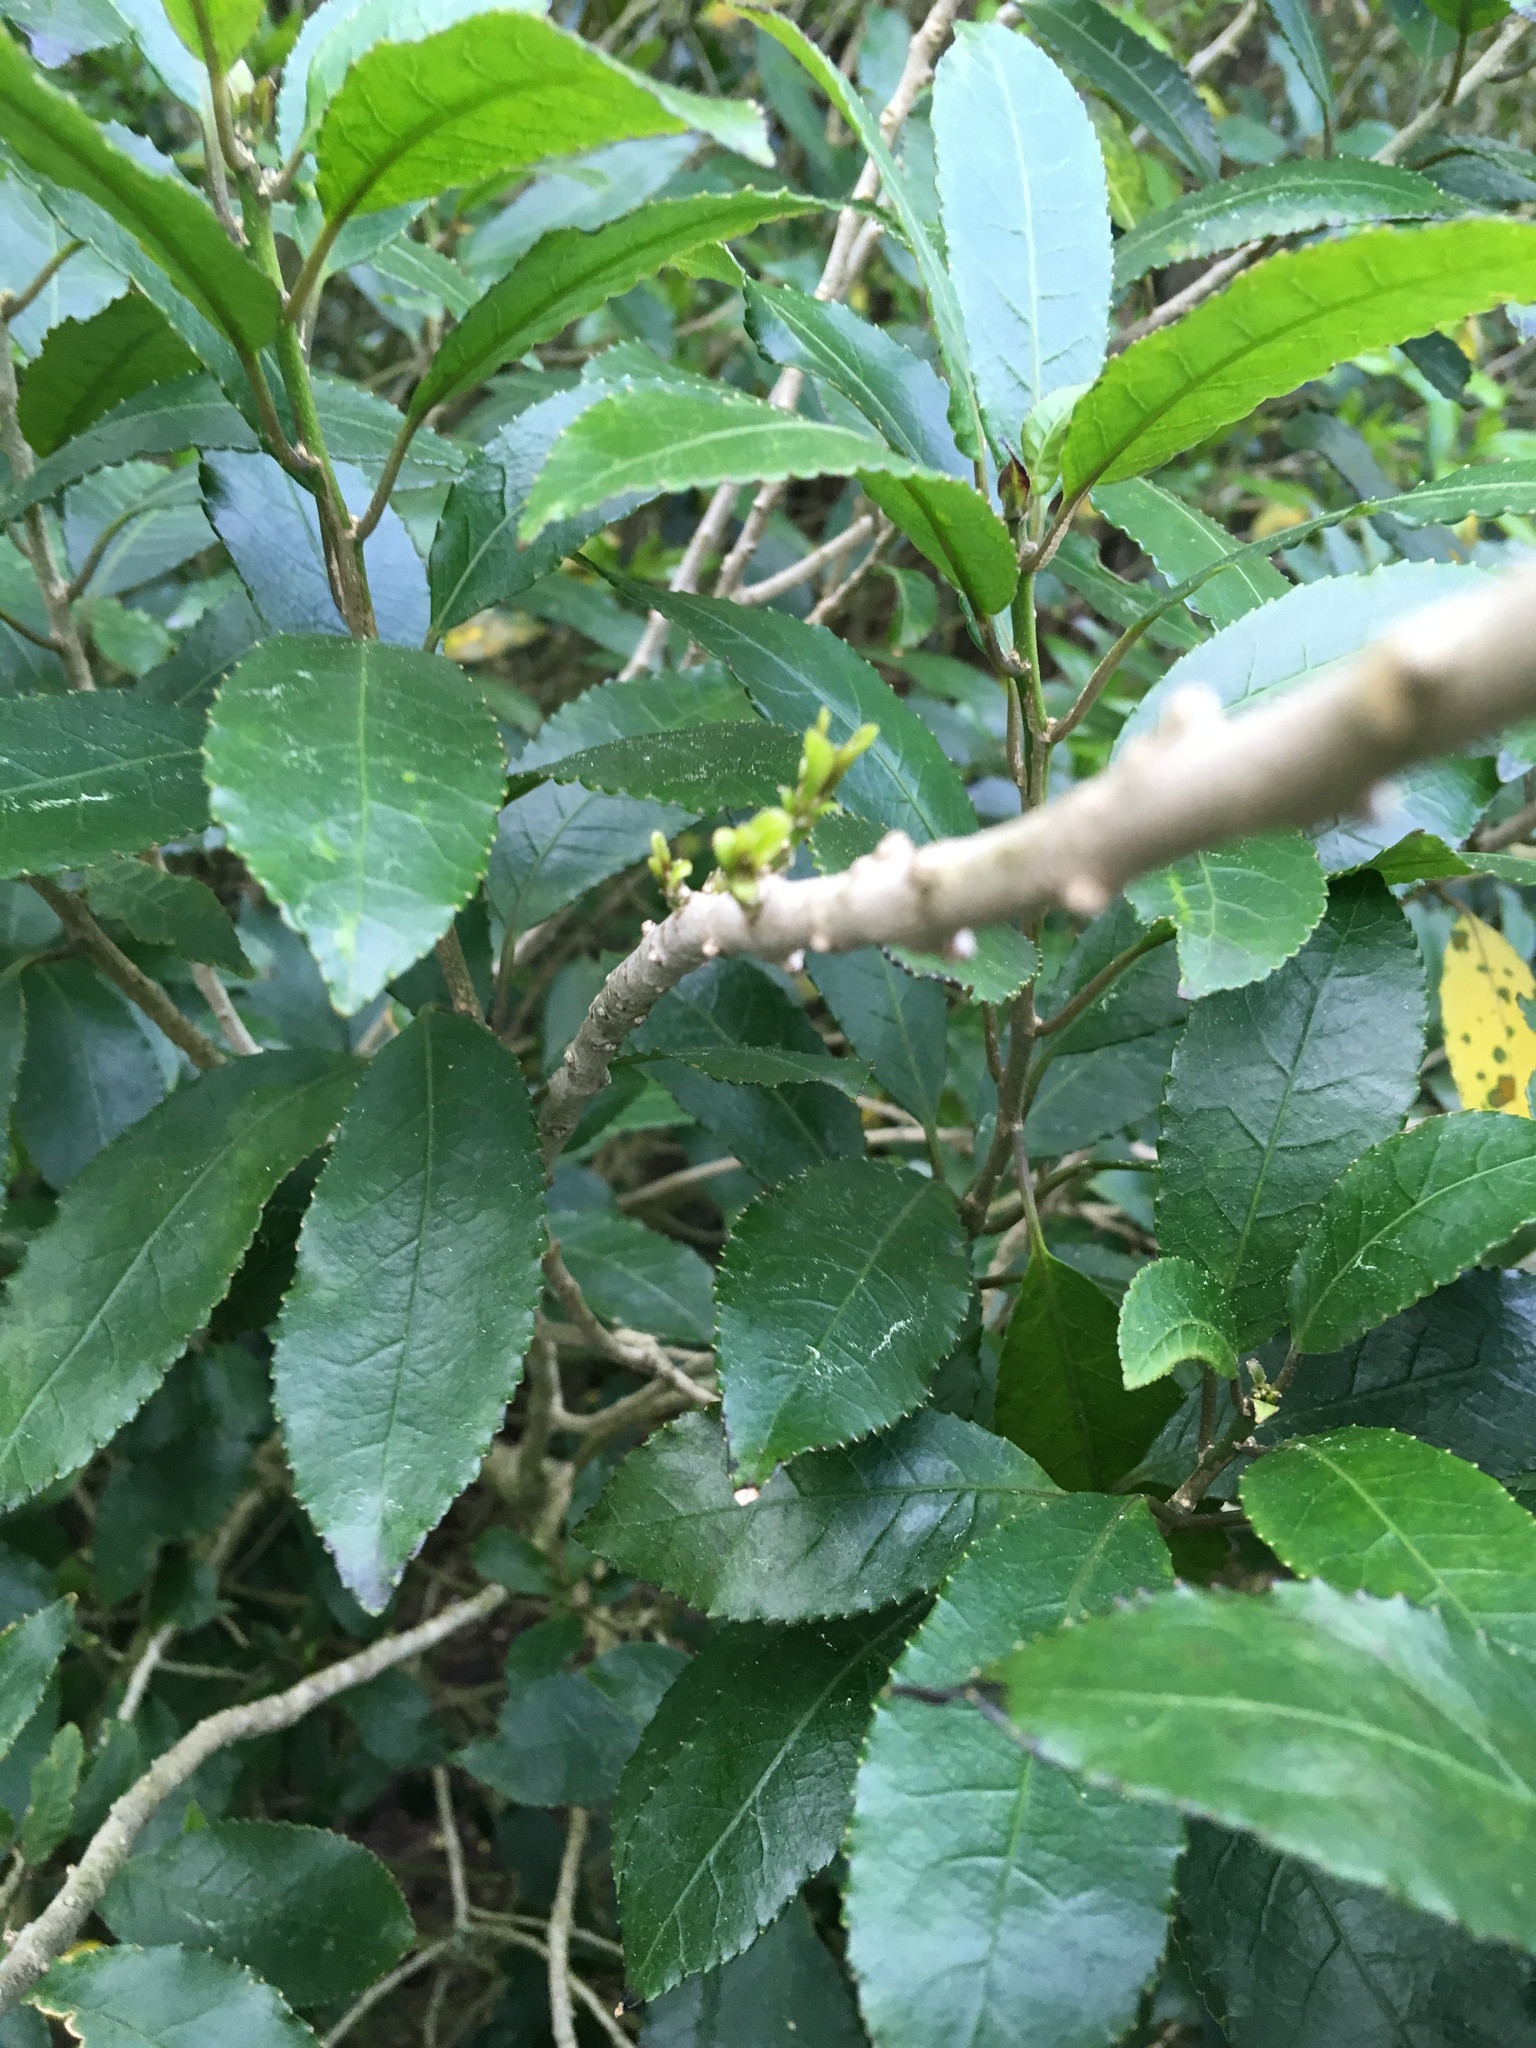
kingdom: Plantae
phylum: Tracheophyta
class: Magnoliopsida
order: Malpighiales
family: Violaceae
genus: Melicytus
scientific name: Melicytus ramiflorus
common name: Mahoe
